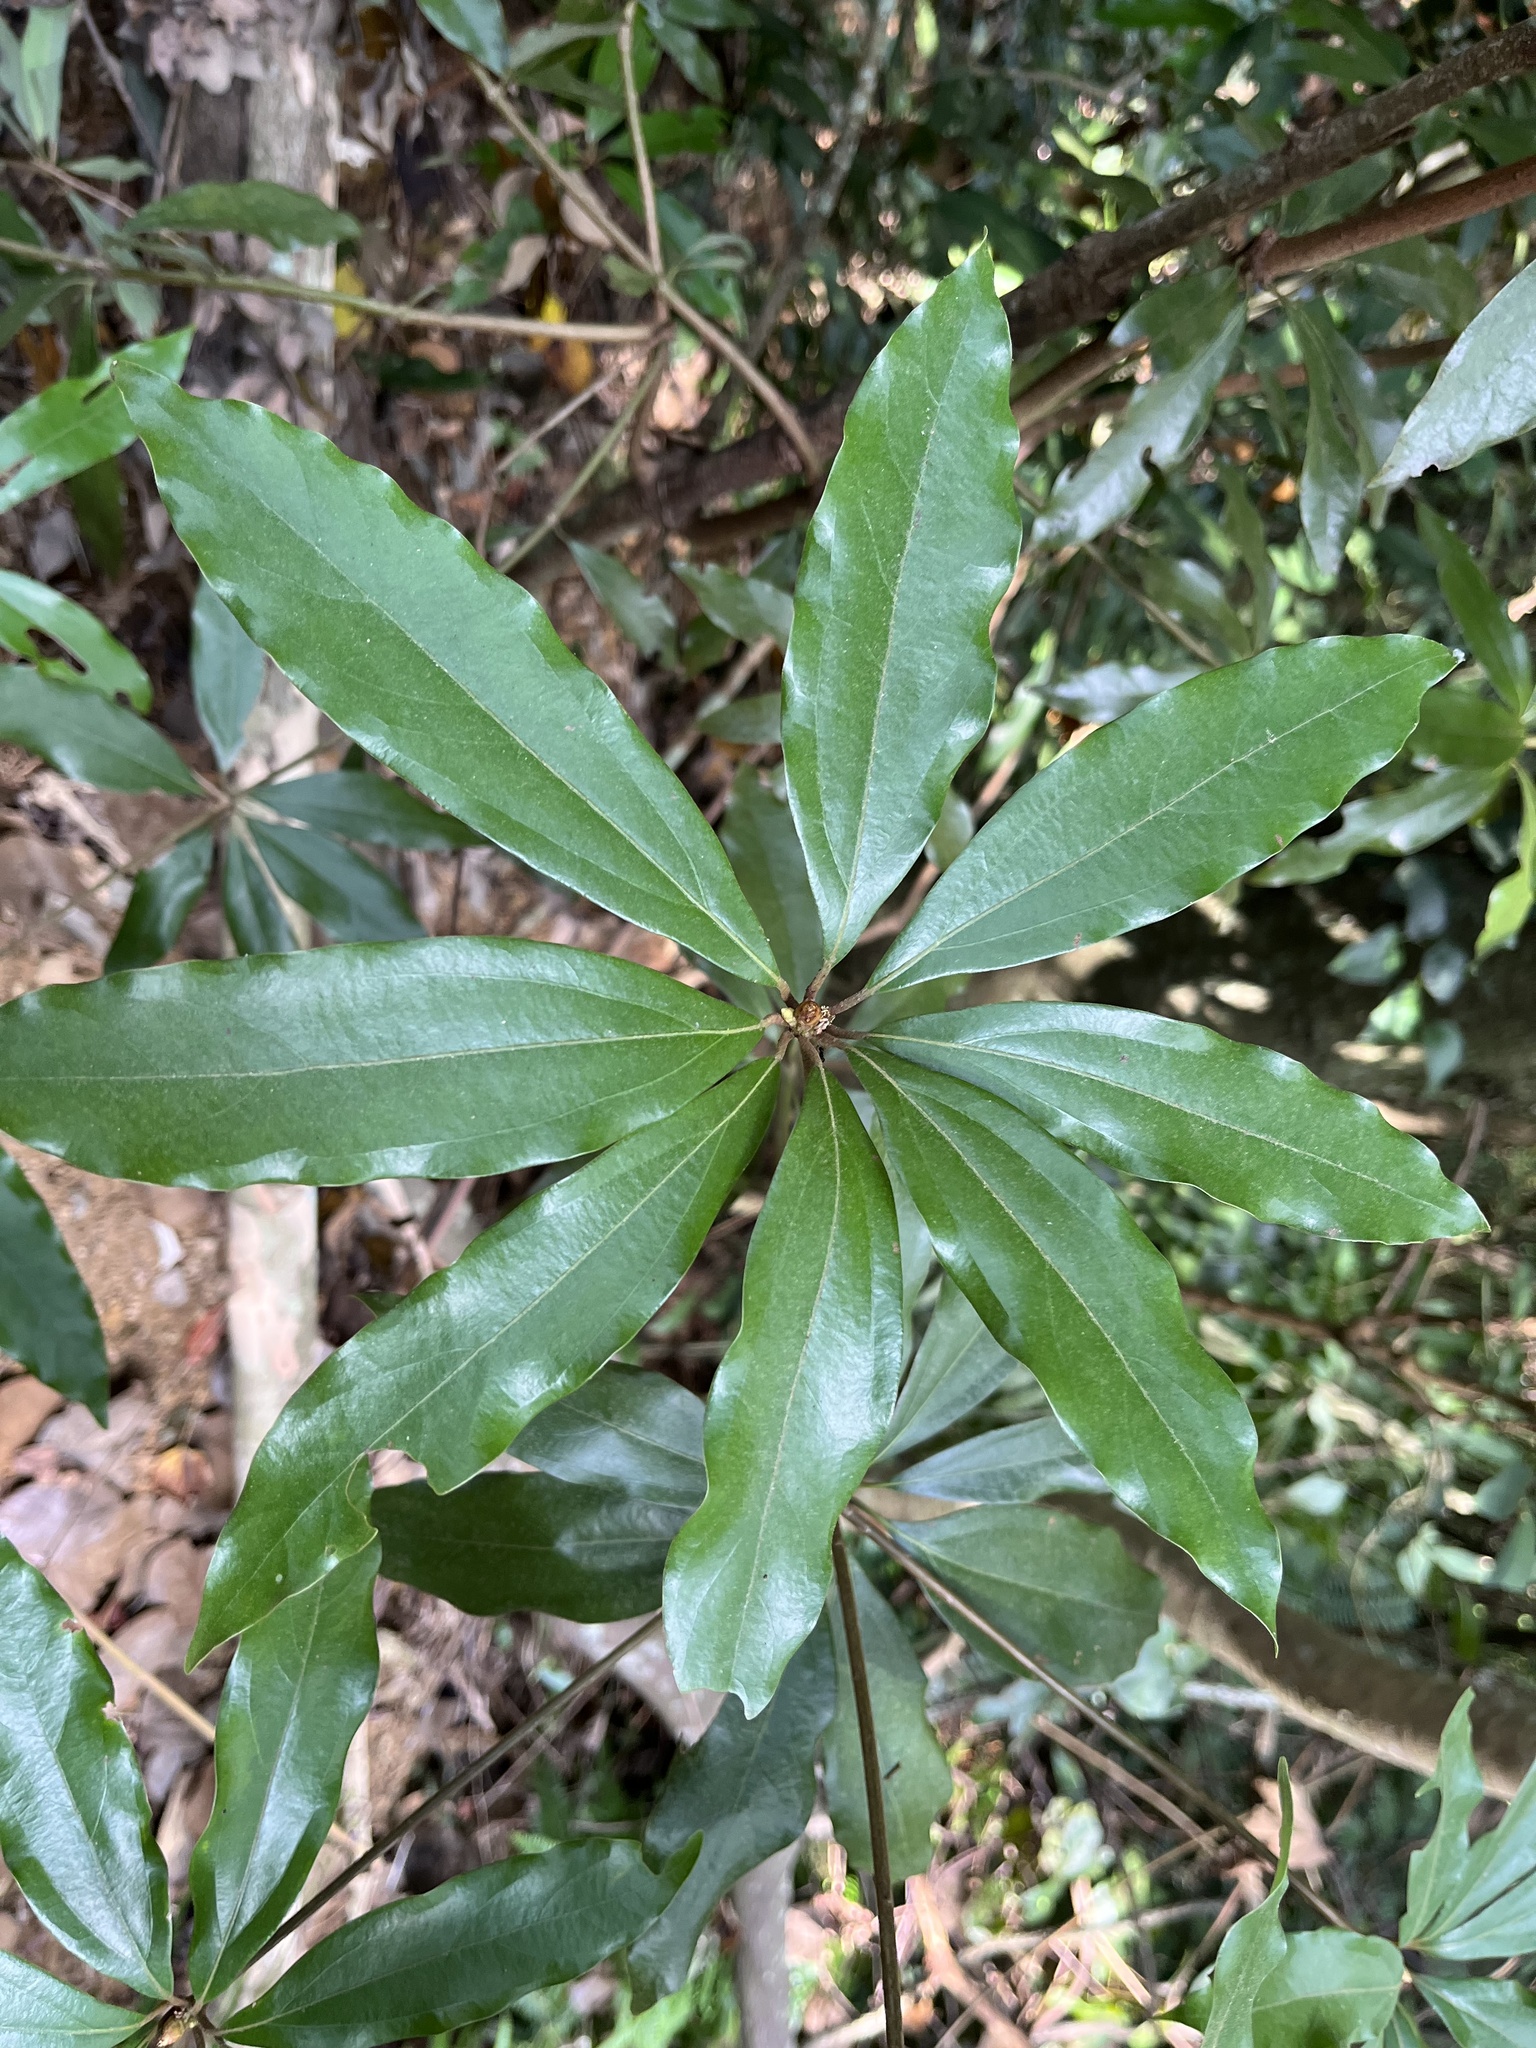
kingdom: Plantae
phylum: Tracheophyta
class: Magnoliopsida
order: Laurales
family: Lauraceae
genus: Neolitsea
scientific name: Neolitsea konishii
